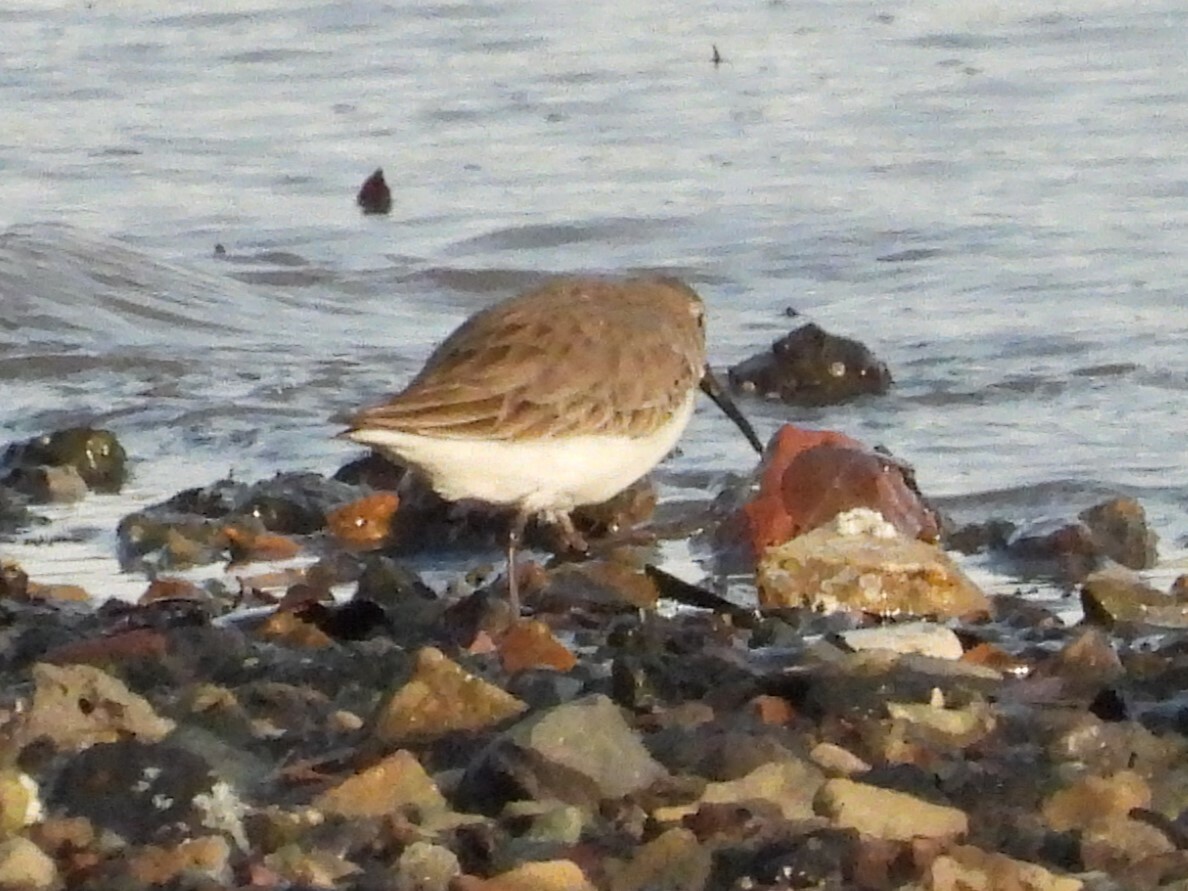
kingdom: Animalia
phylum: Chordata
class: Aves
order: Charadriiformes
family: Scolopacidae
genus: Calidris
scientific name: Calidris alpina
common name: Dunlin
